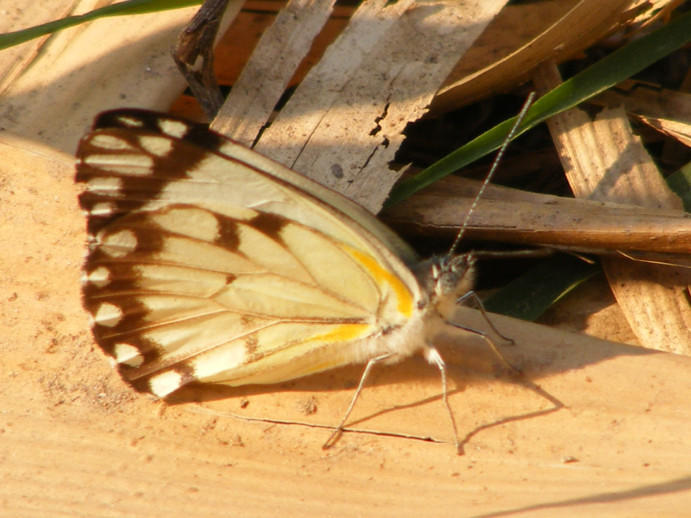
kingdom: Animalia
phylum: Arthropoda
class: Insecta
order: Lepidoptera
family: Pieridae
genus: Belenois
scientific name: Belenois creona
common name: African caper white
